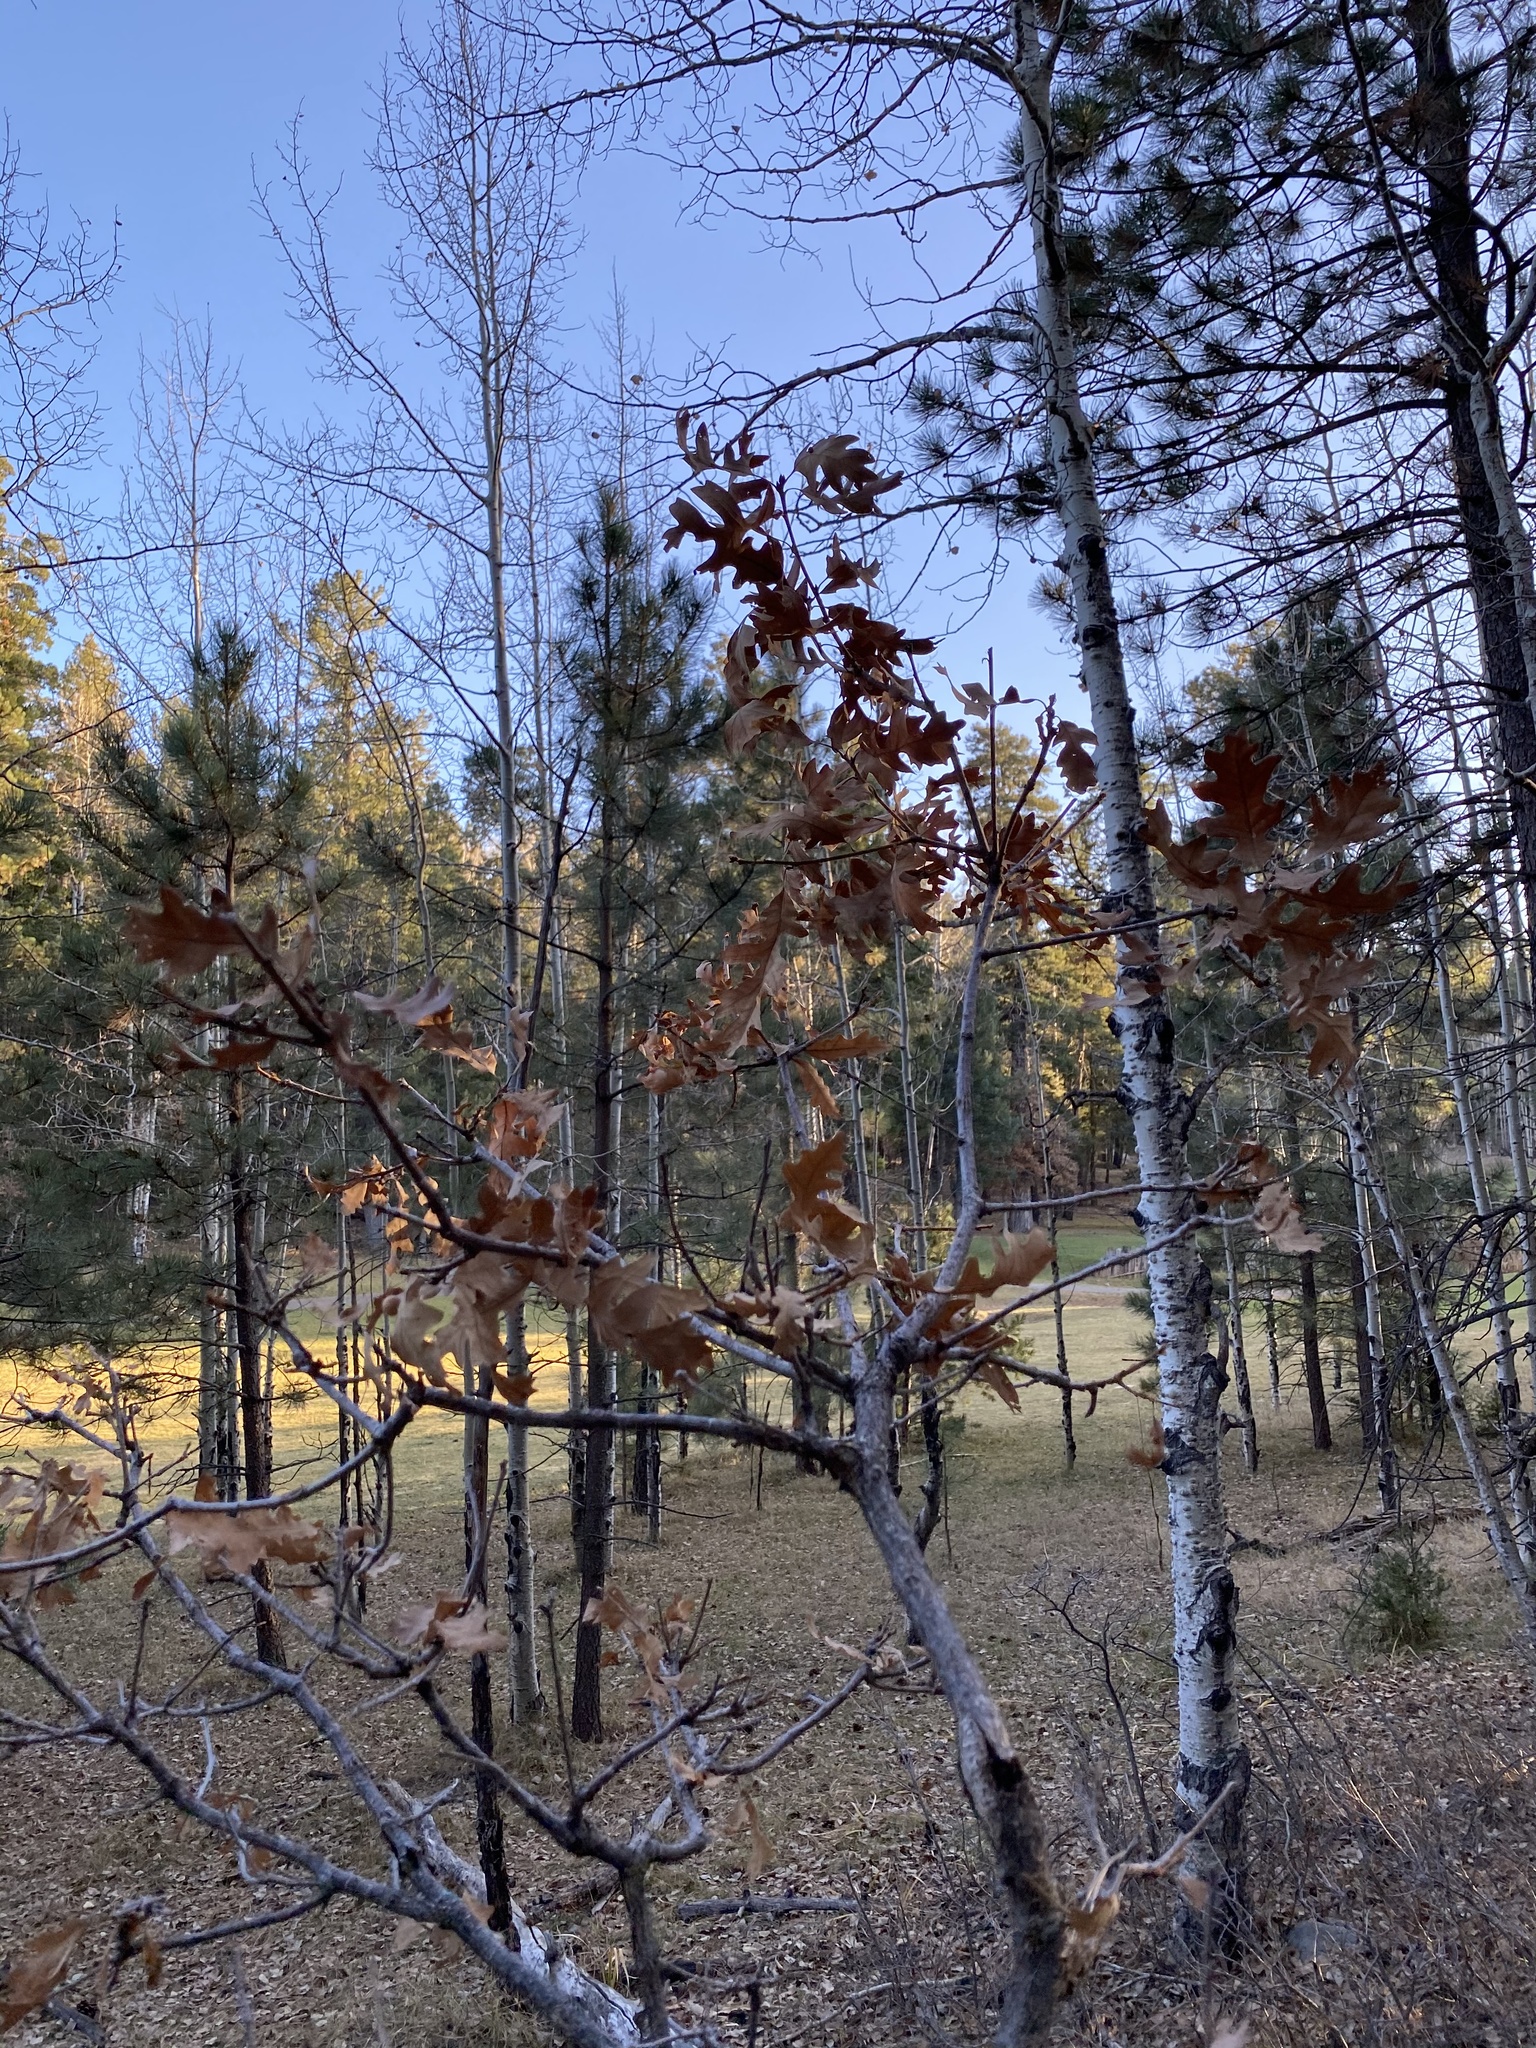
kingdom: Plantae
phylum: Tracheophyta
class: Magnoliopsida
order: Fagales
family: Fagaceae
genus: Quercus
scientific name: Quercus gambelii
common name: Gambel oak
